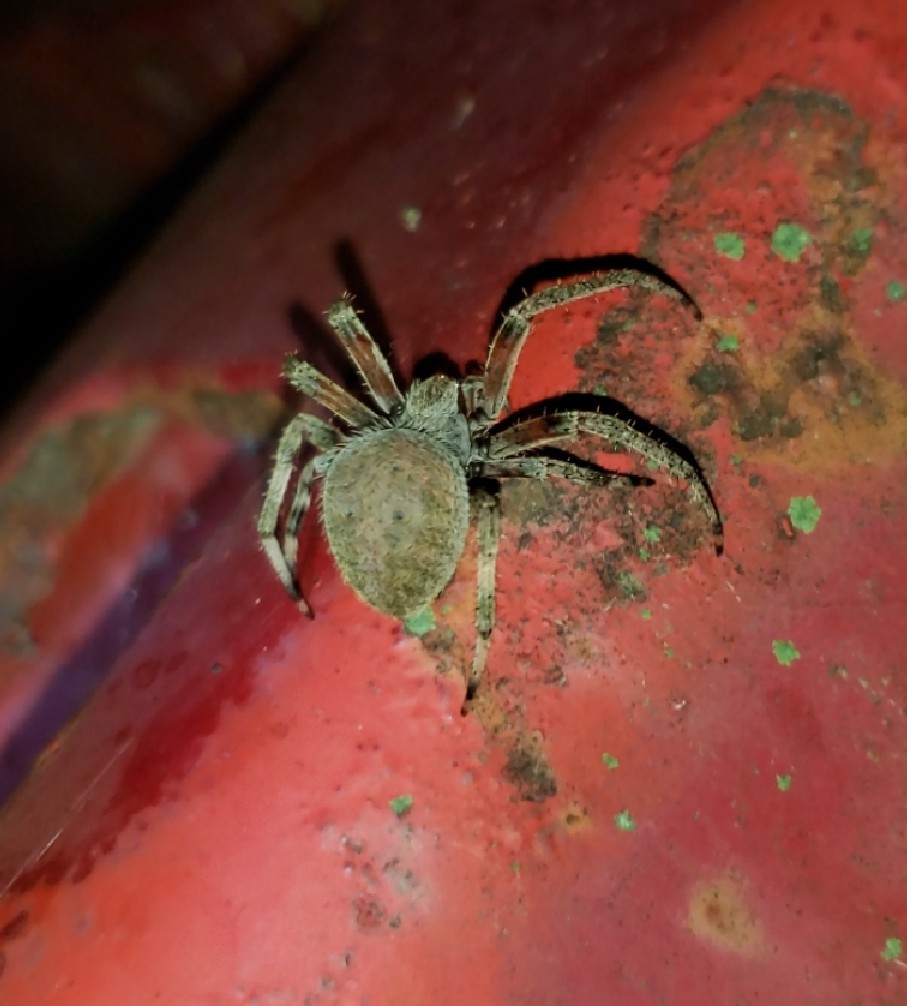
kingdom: Animalia
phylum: Arthropoda
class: Arachnida
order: Araneae
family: Araneidae
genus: Neoscona
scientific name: Neoscona crucifera
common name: Spotted orbweaver
